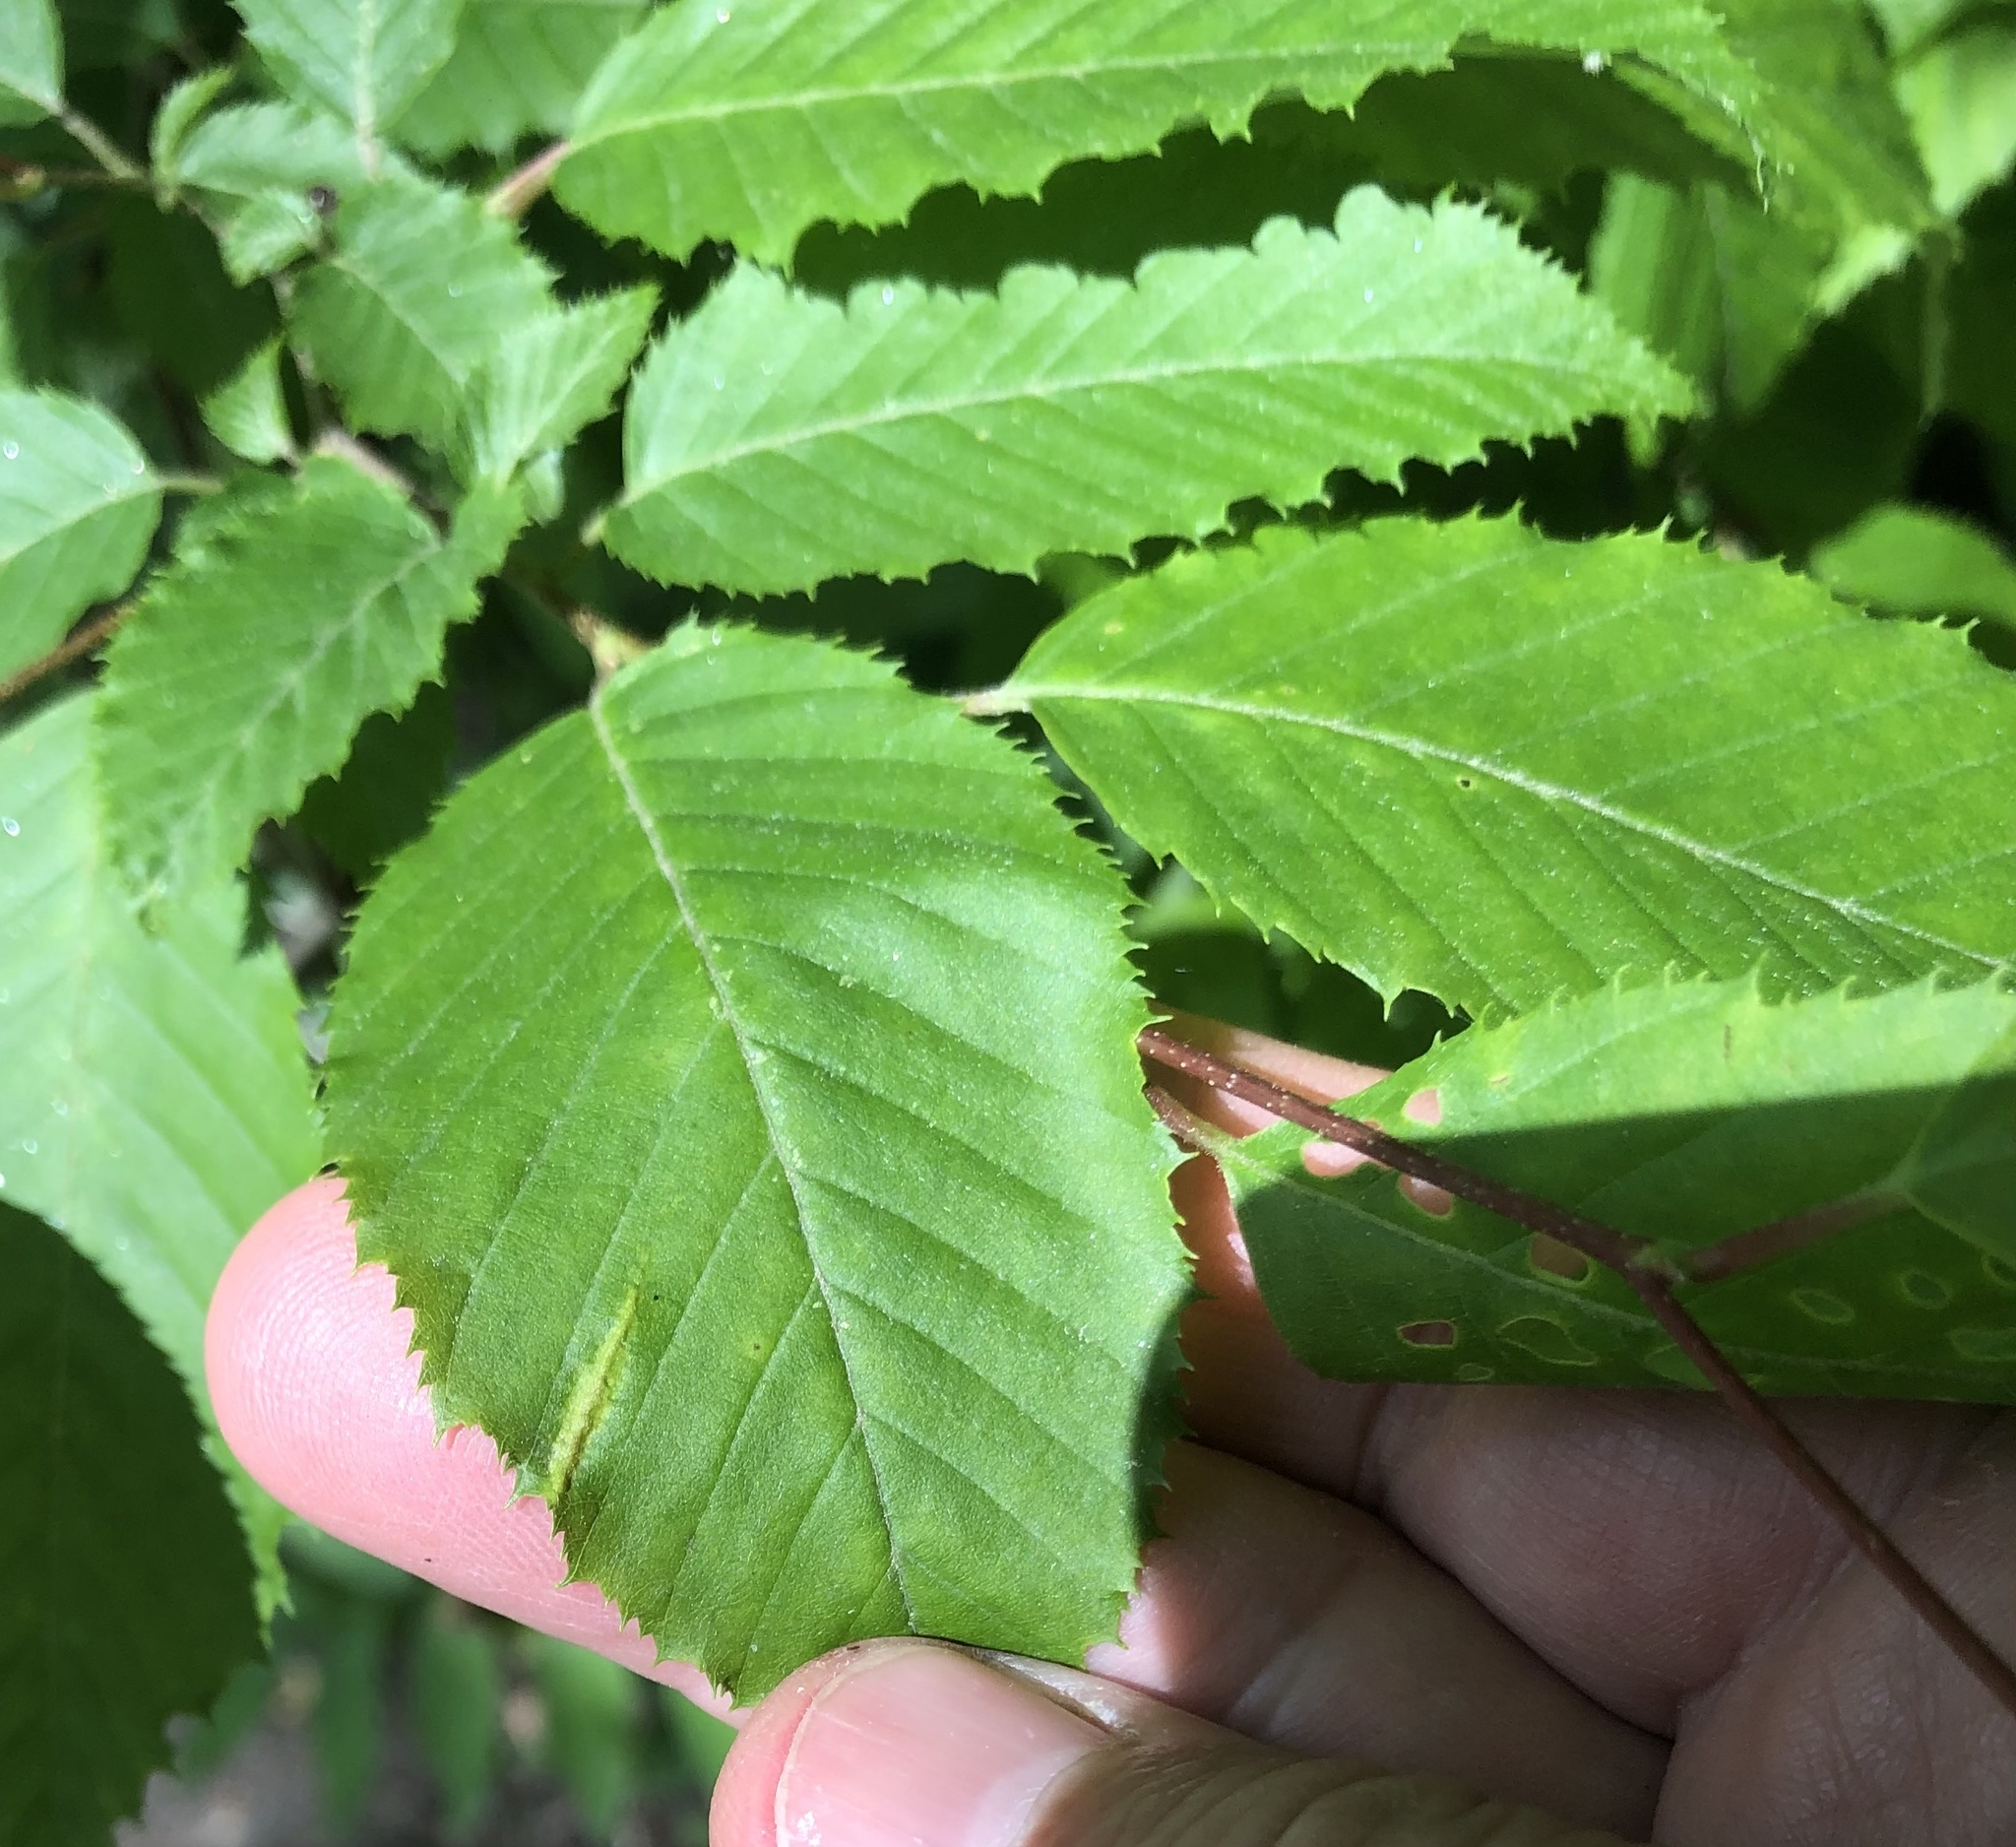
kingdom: Animalia
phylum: Arthropoda
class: Insecta
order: Diptera
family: Cecidomyiidae
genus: Dasineura
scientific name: Dasineura pudibunda
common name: Hornbeam leaf gall midge
